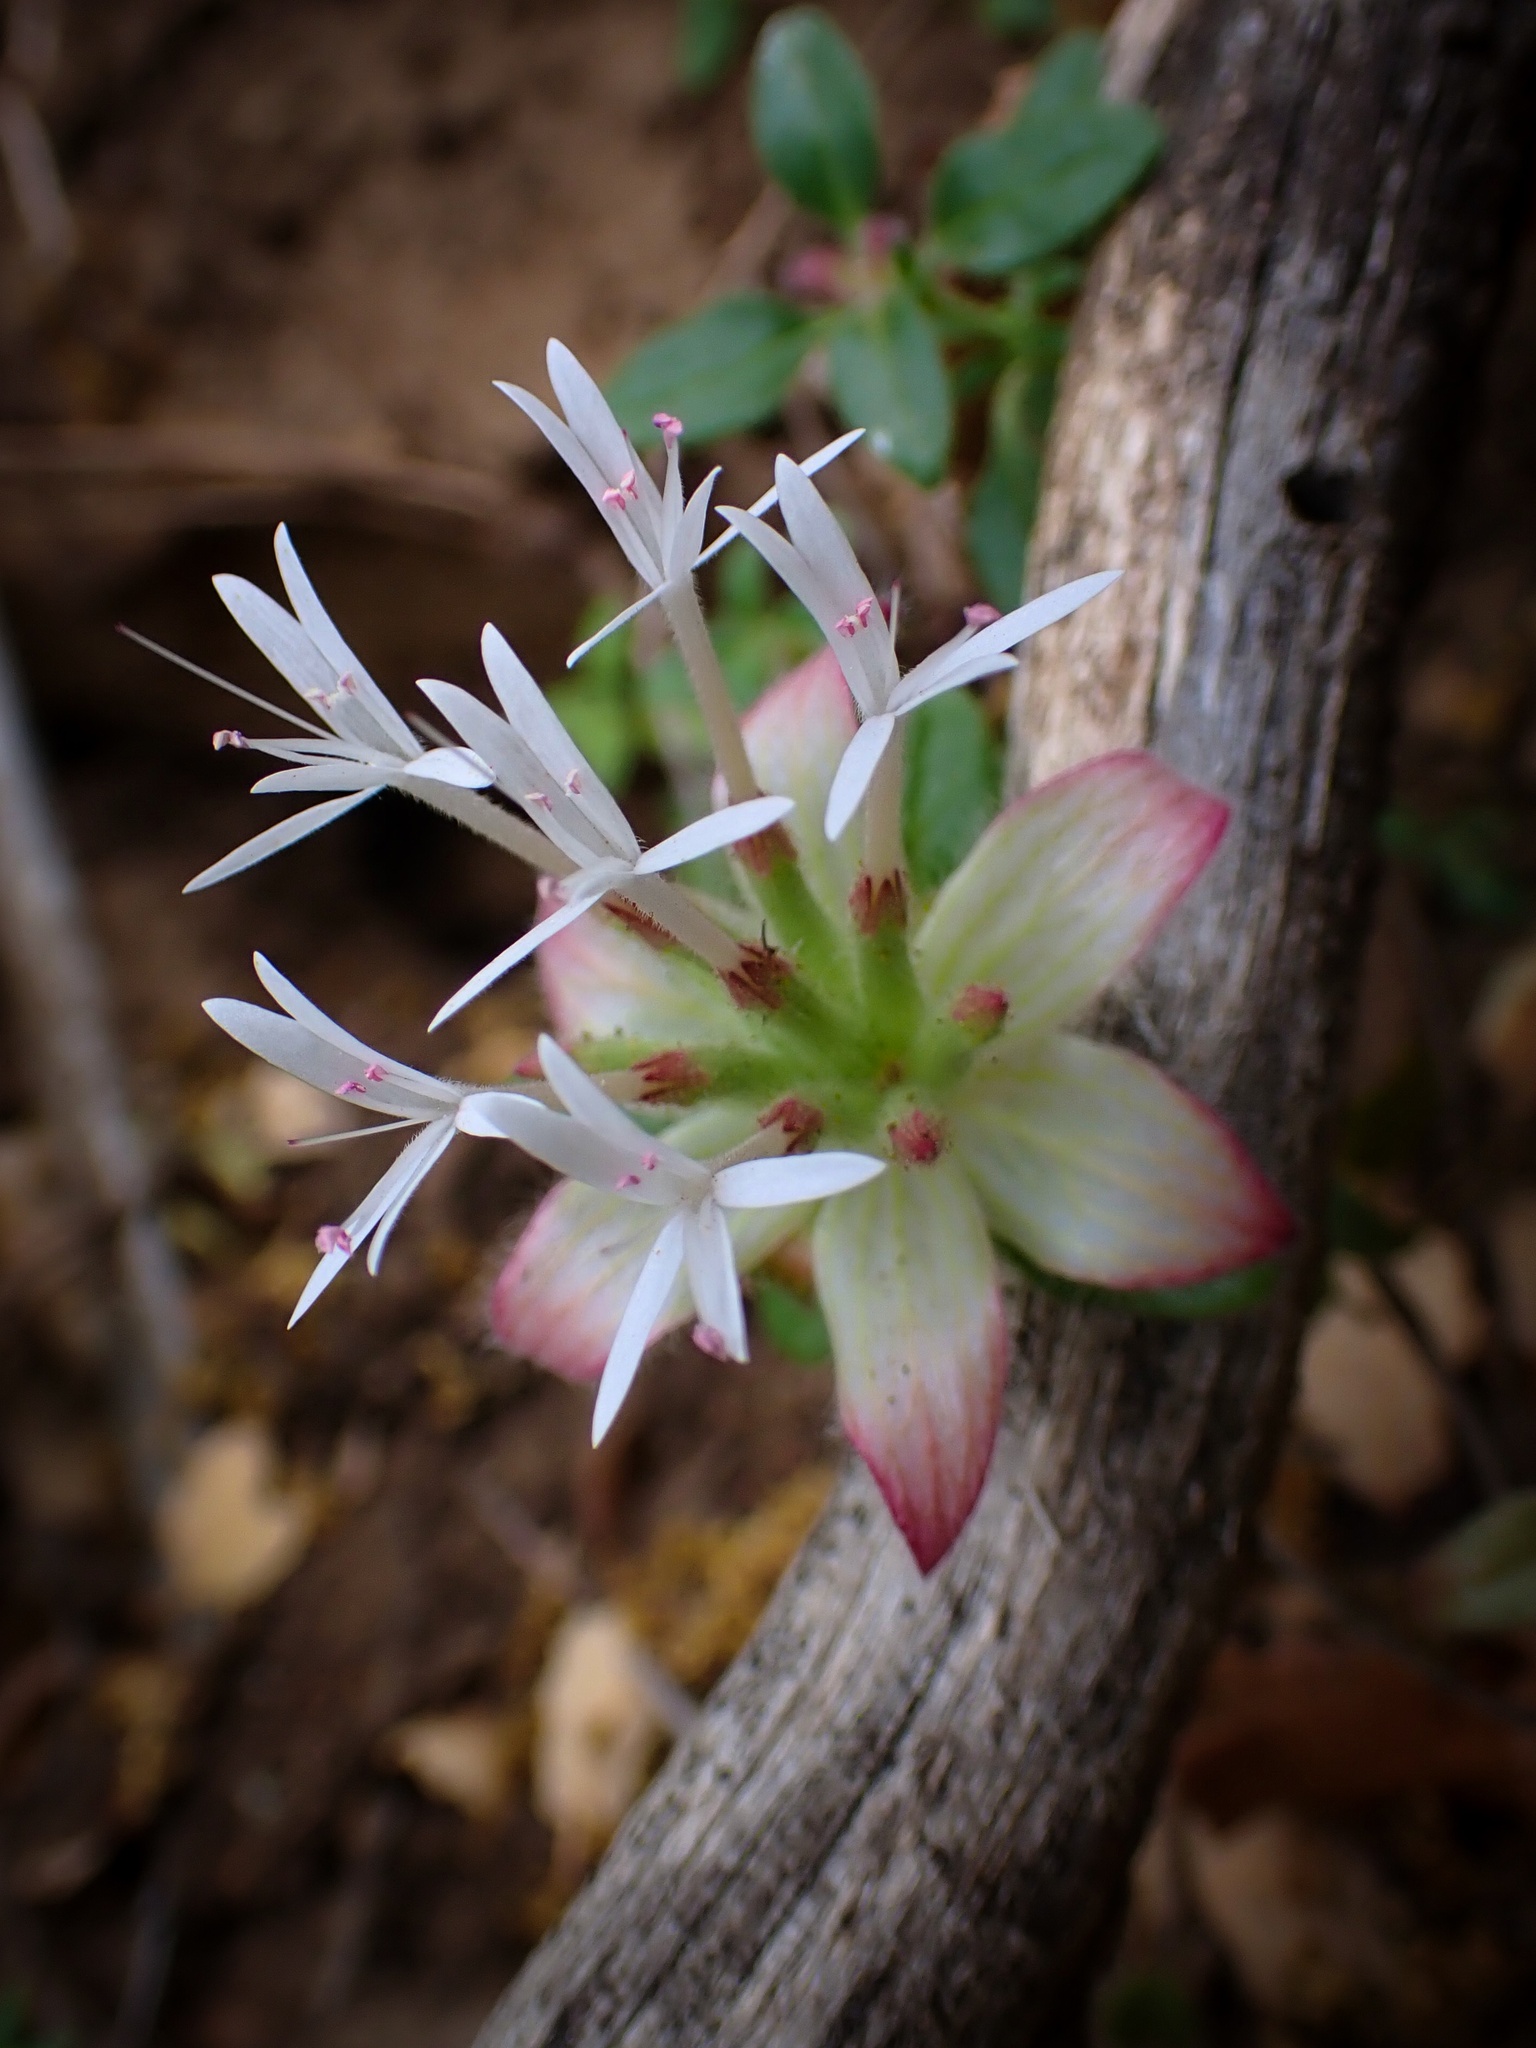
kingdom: Plantae
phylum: Tracheophyta
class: Magnoliopsida
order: Lamiales
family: Lamiaceae
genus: Monardella
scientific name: Monardella nana
